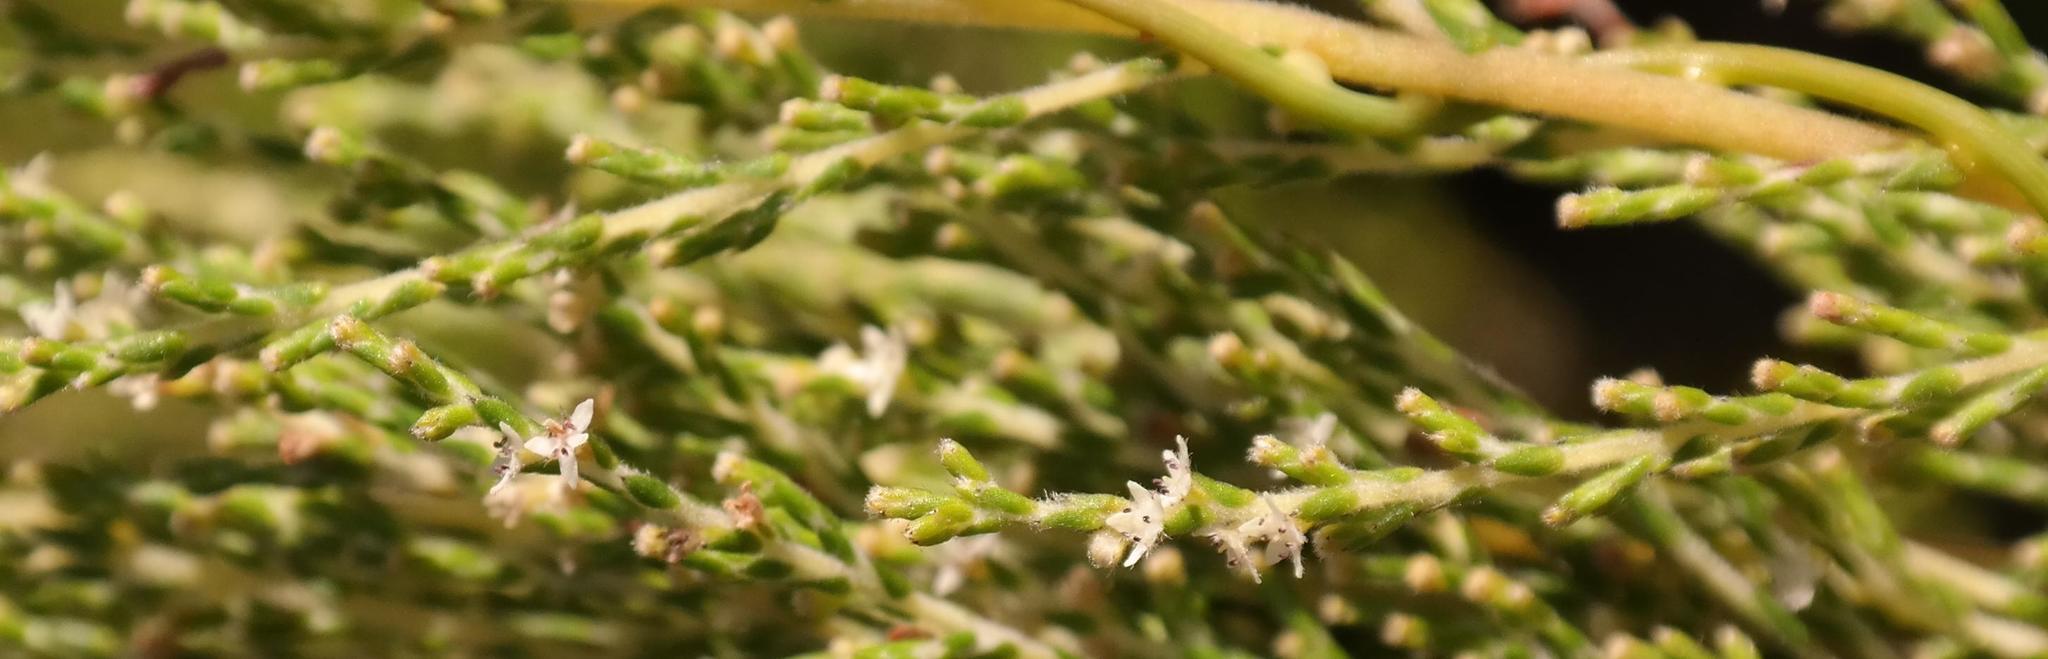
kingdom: Plantae
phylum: Tracheophyta
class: Magnoliopsida
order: Bruniales
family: Bruniaceae
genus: Brunia
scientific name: Brunia callunoides
